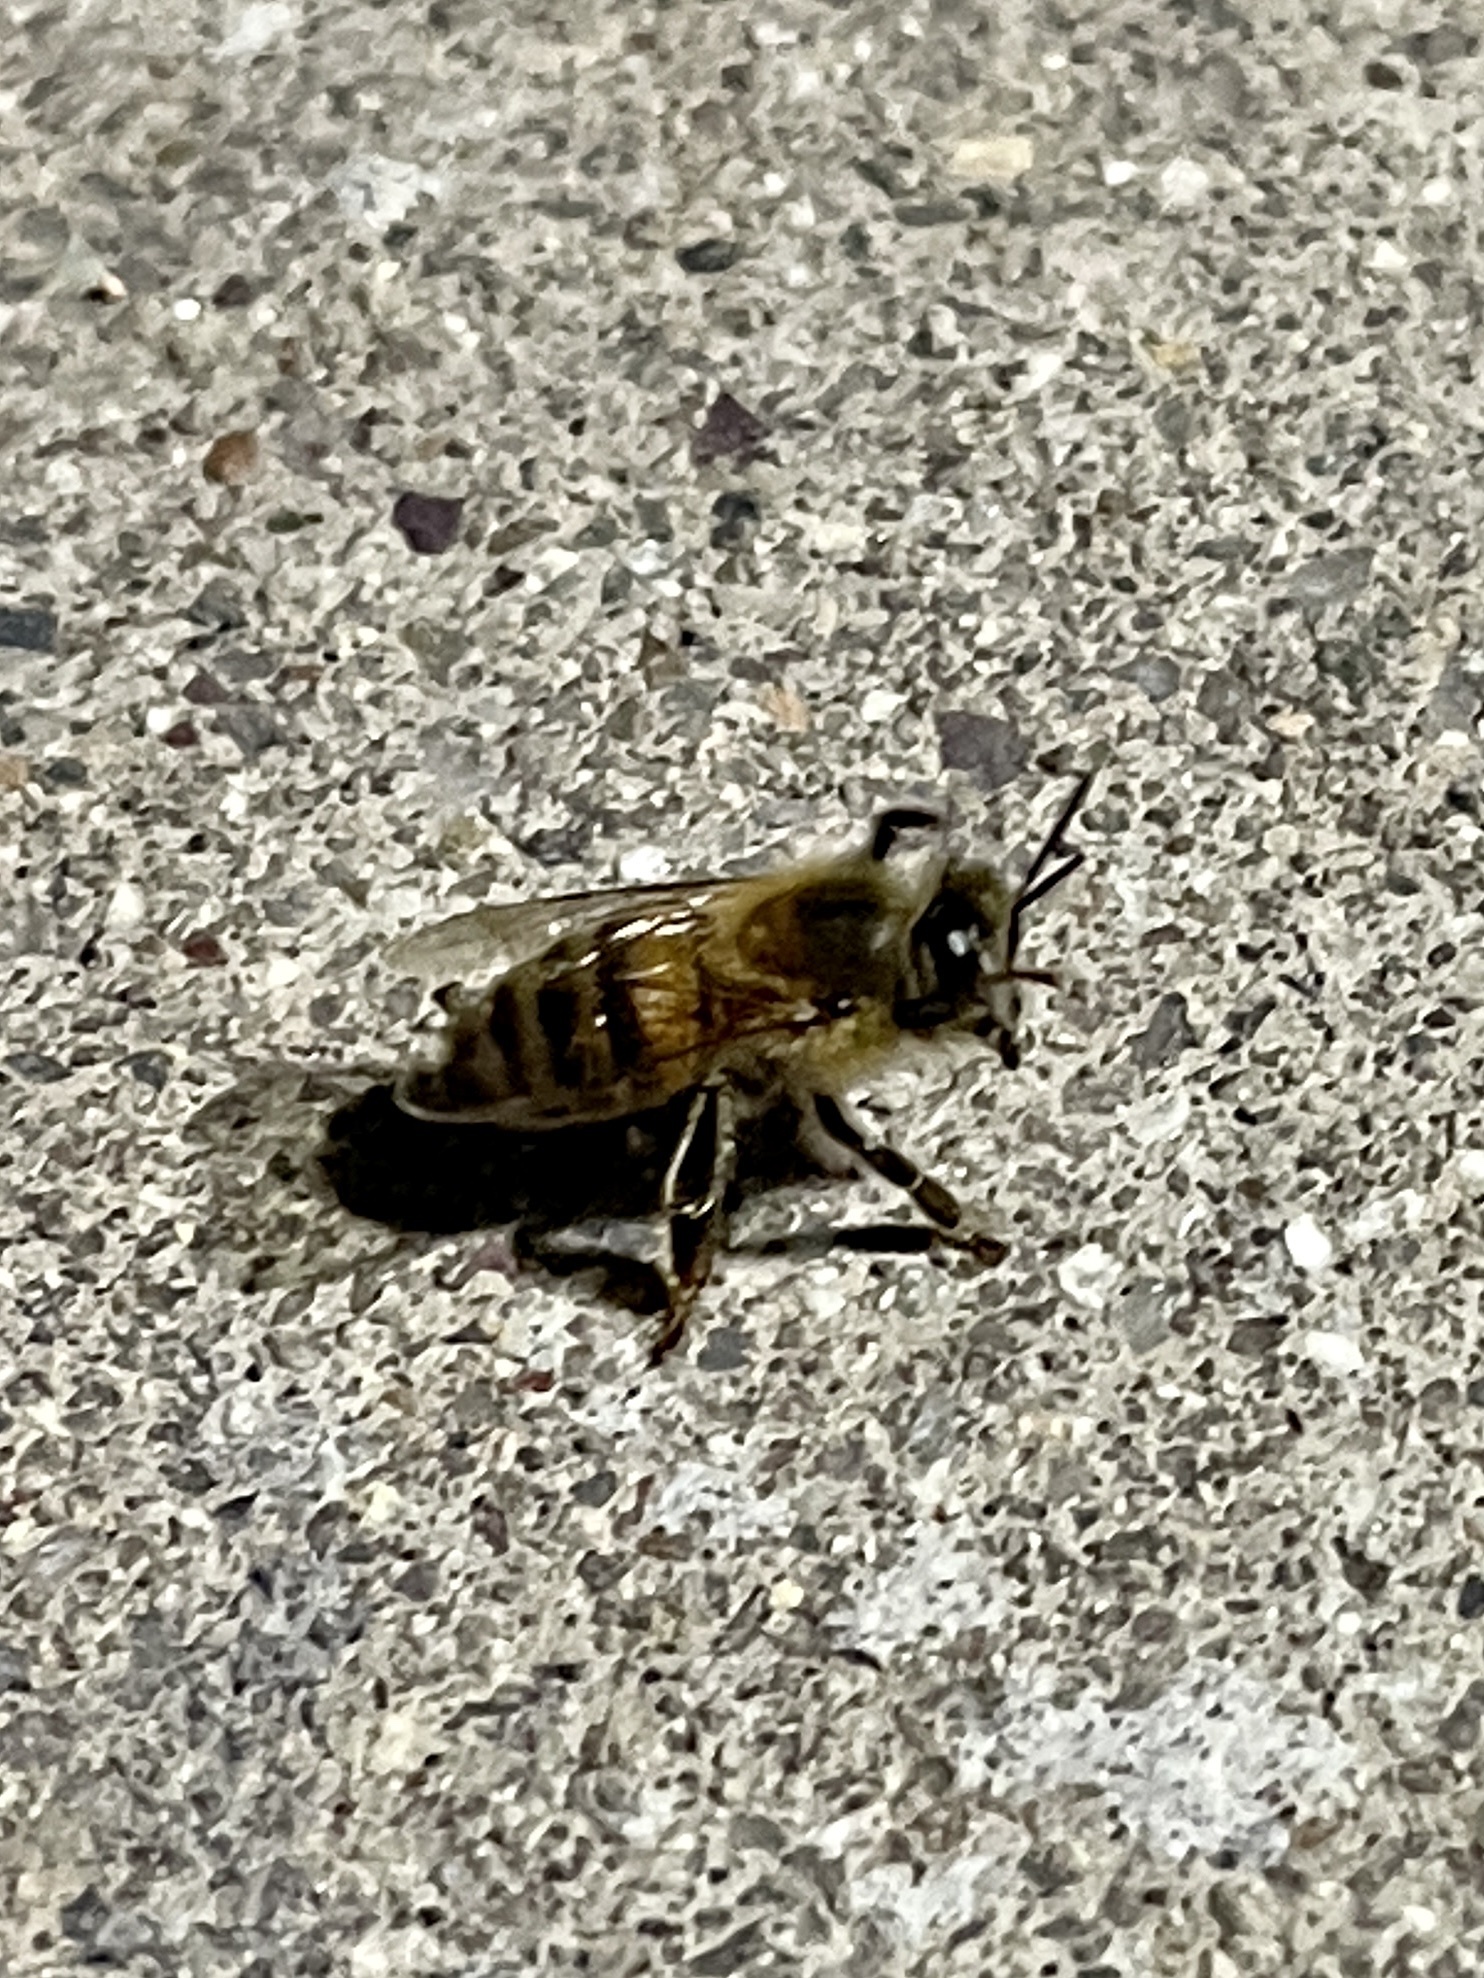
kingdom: Animalia
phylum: Arthropoda
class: Insecta
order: Hymenoptera
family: Apidae
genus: Apis
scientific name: Apis mellifera
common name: Honey bee
